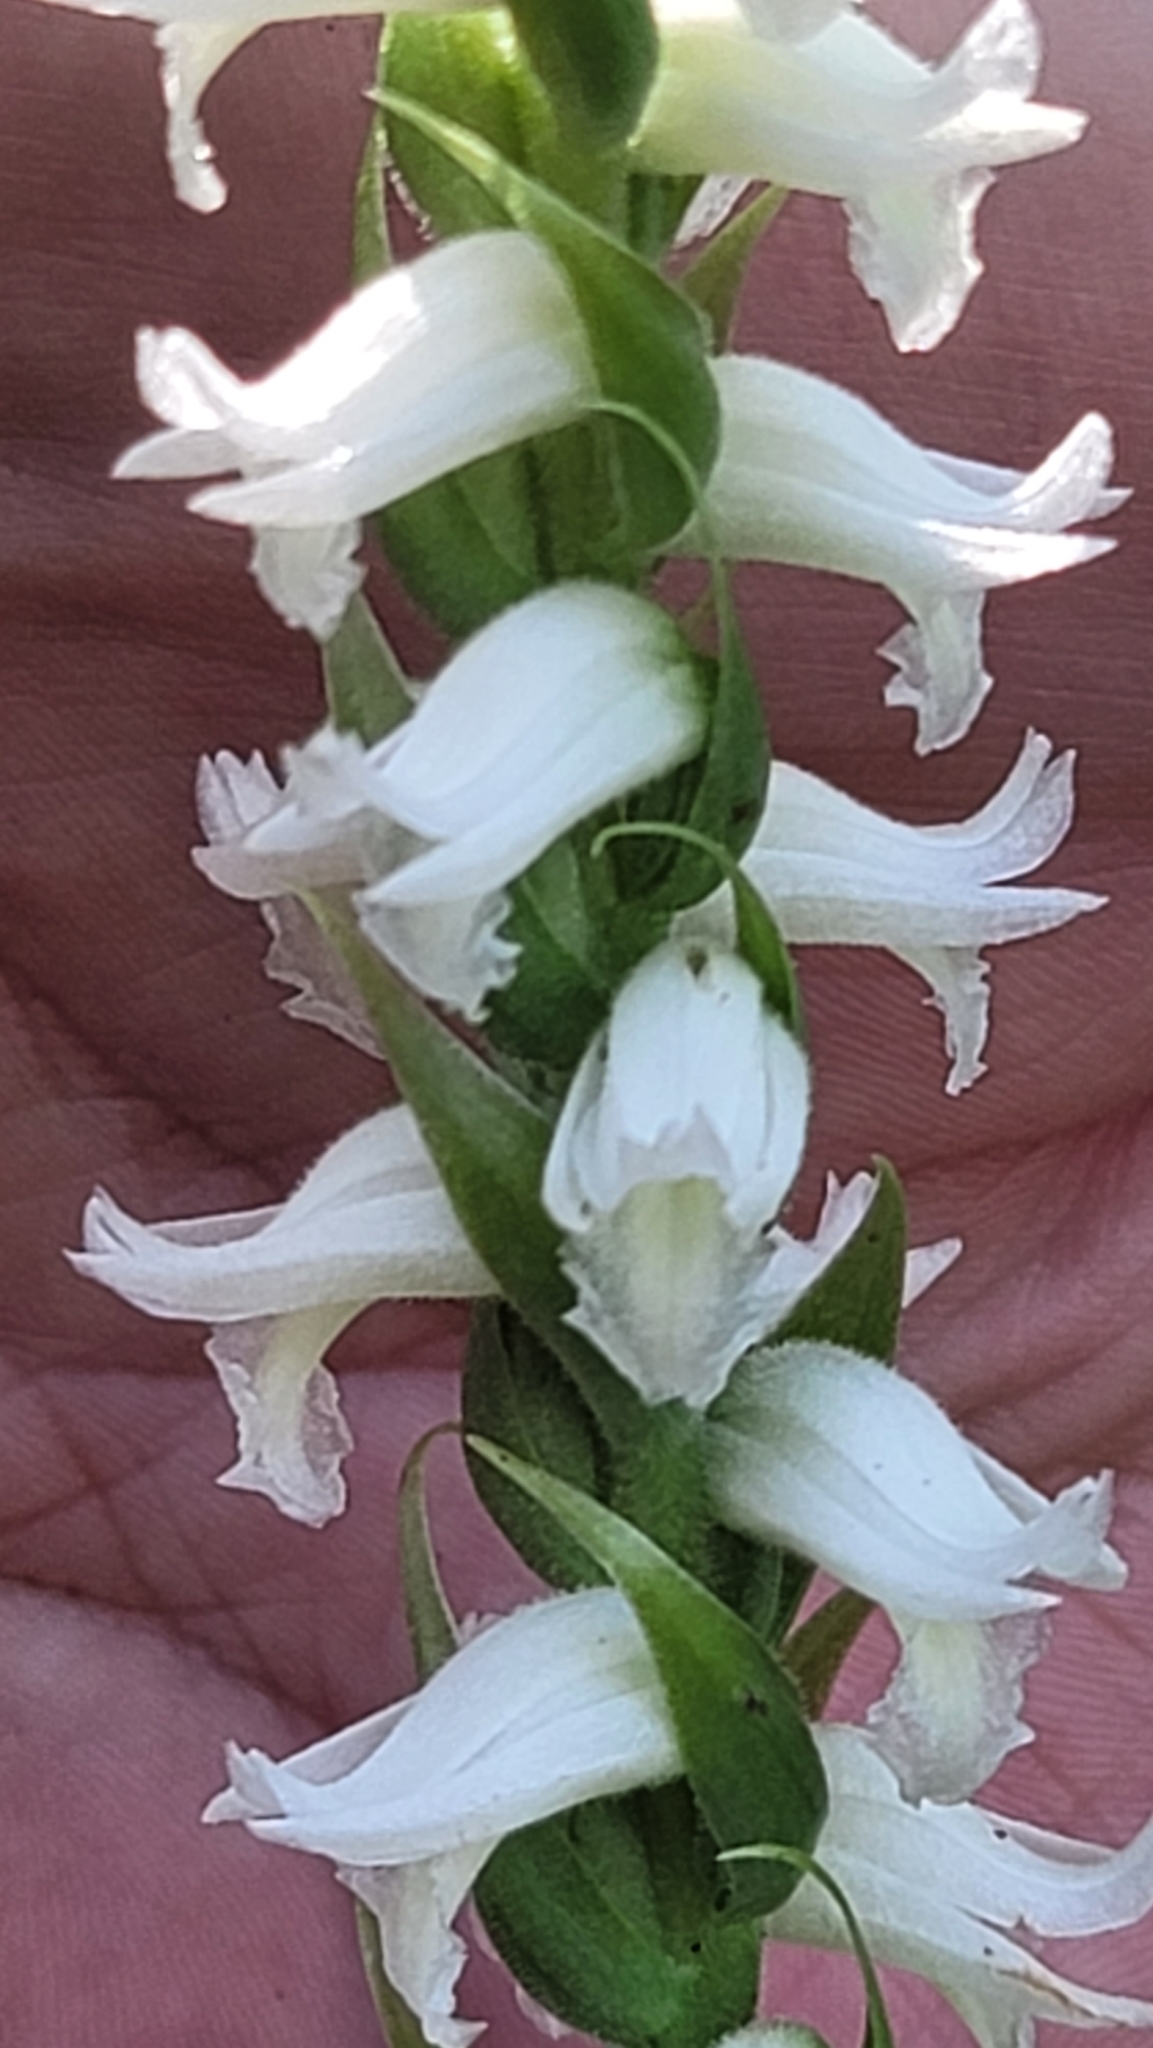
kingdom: Plantae
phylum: Tracheophyta
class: Liliopsida
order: Asparagales
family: Orchidaceae
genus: Spiranthes
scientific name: Spiranthes odorata
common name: Marsh ladies'-tresses
